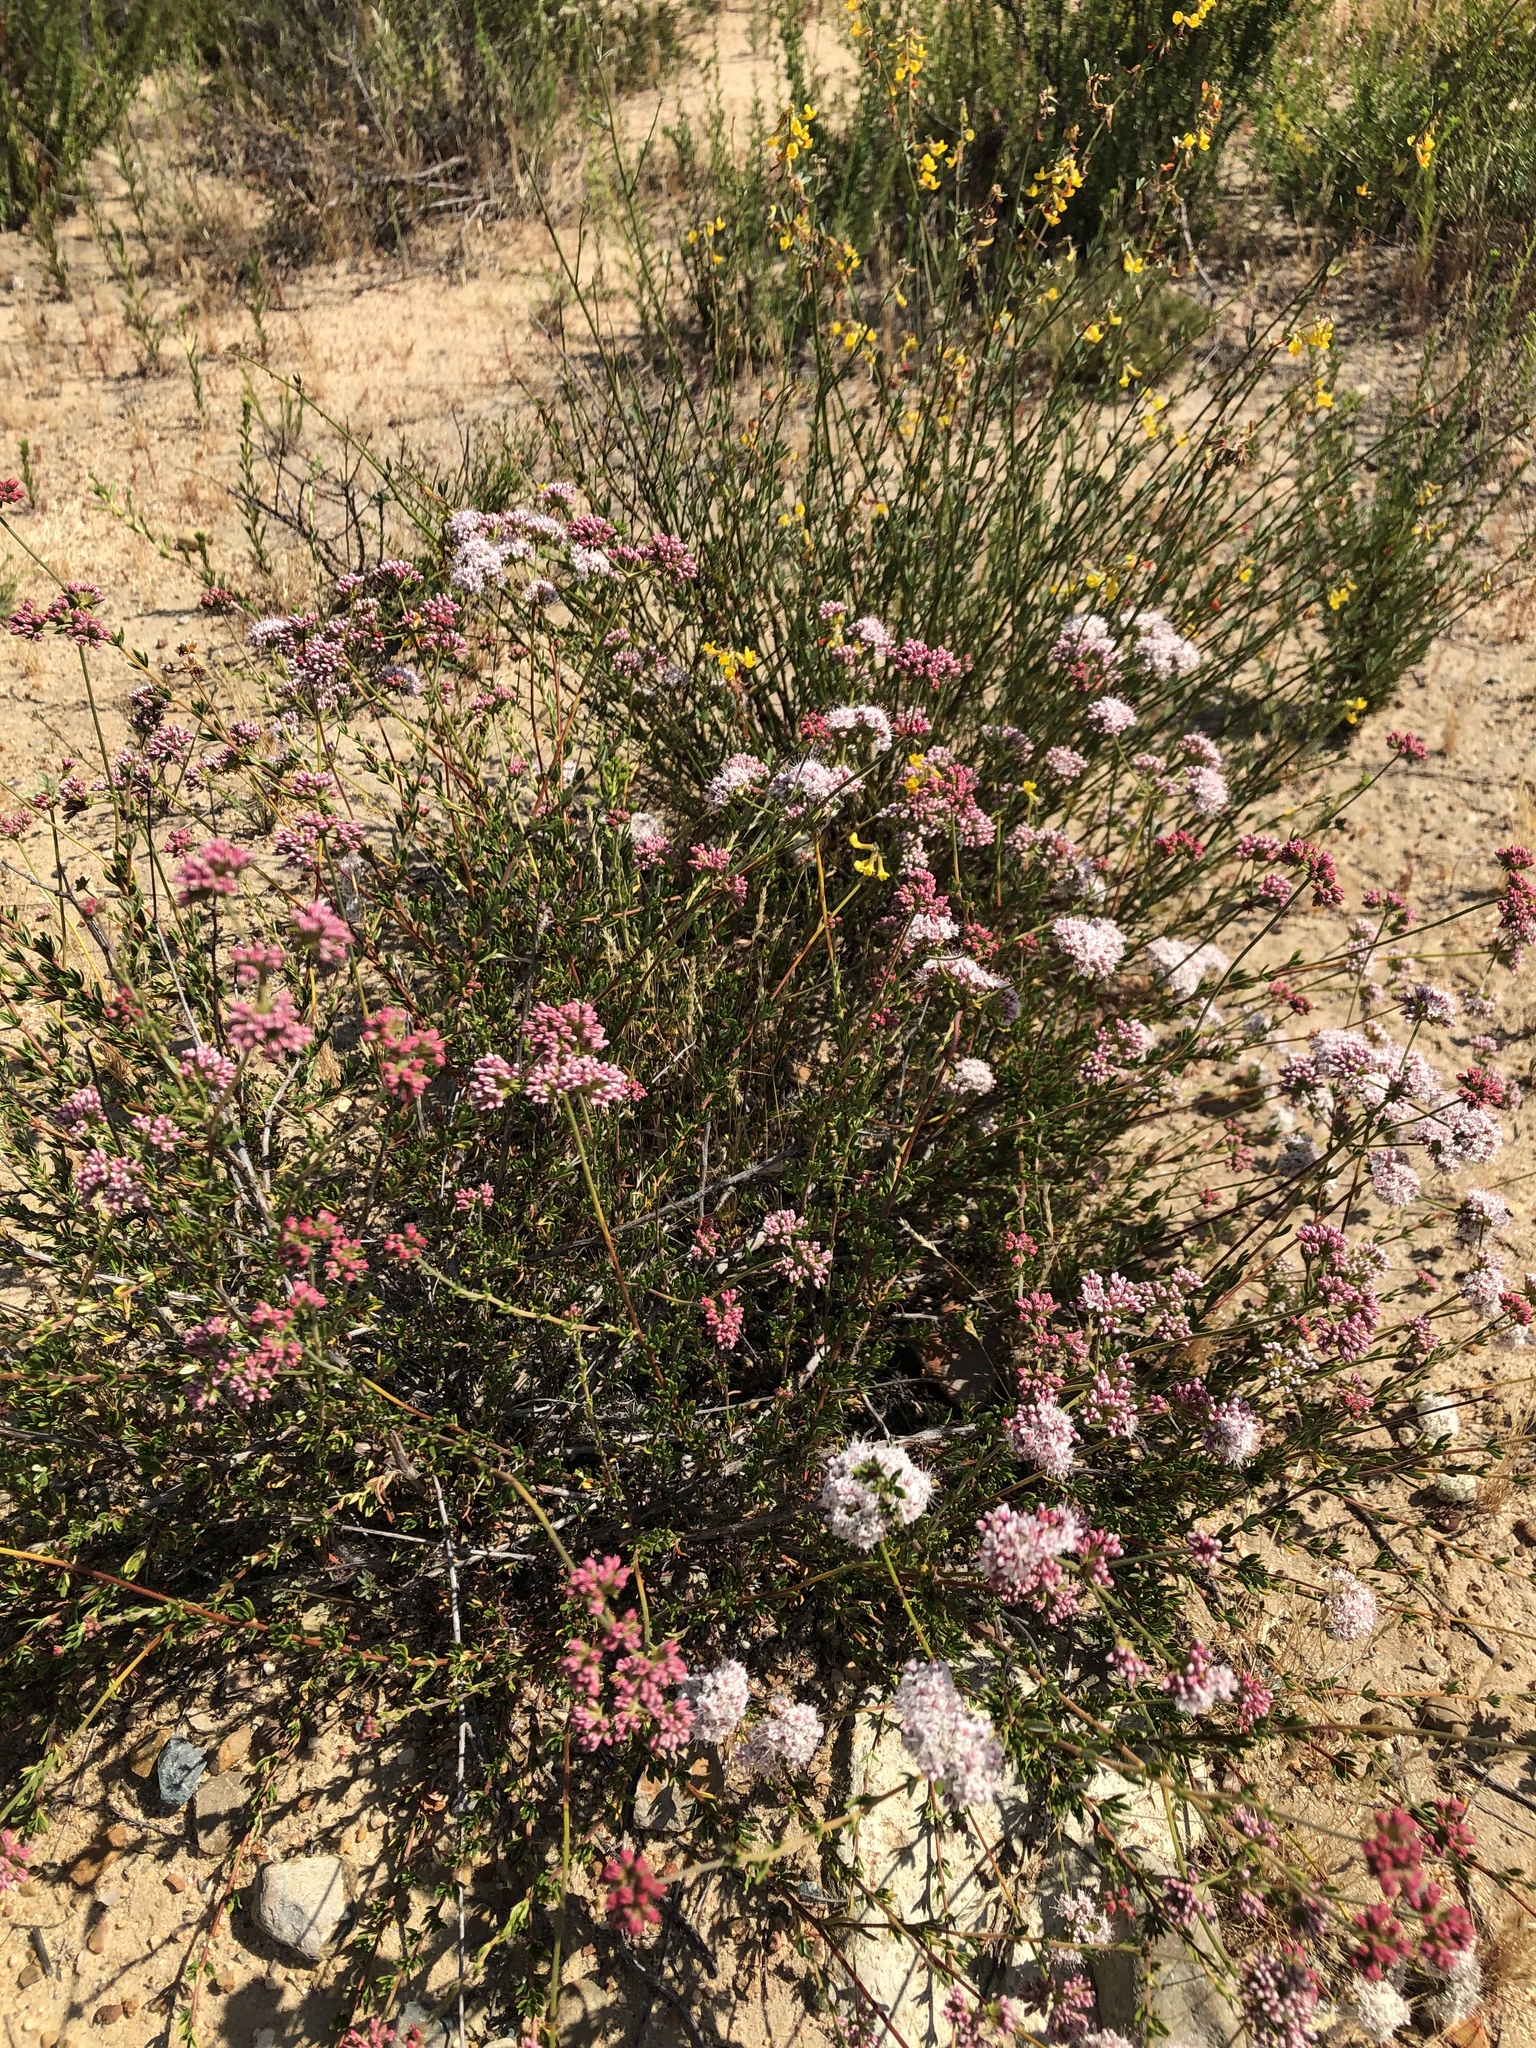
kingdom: Plantae
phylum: Tracheophyta
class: Magnoliopsida
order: Caryophyllales
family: Polygonaceae
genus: Eriogonum
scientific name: Eriogonum fasciculatum
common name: California wild buckwheat
